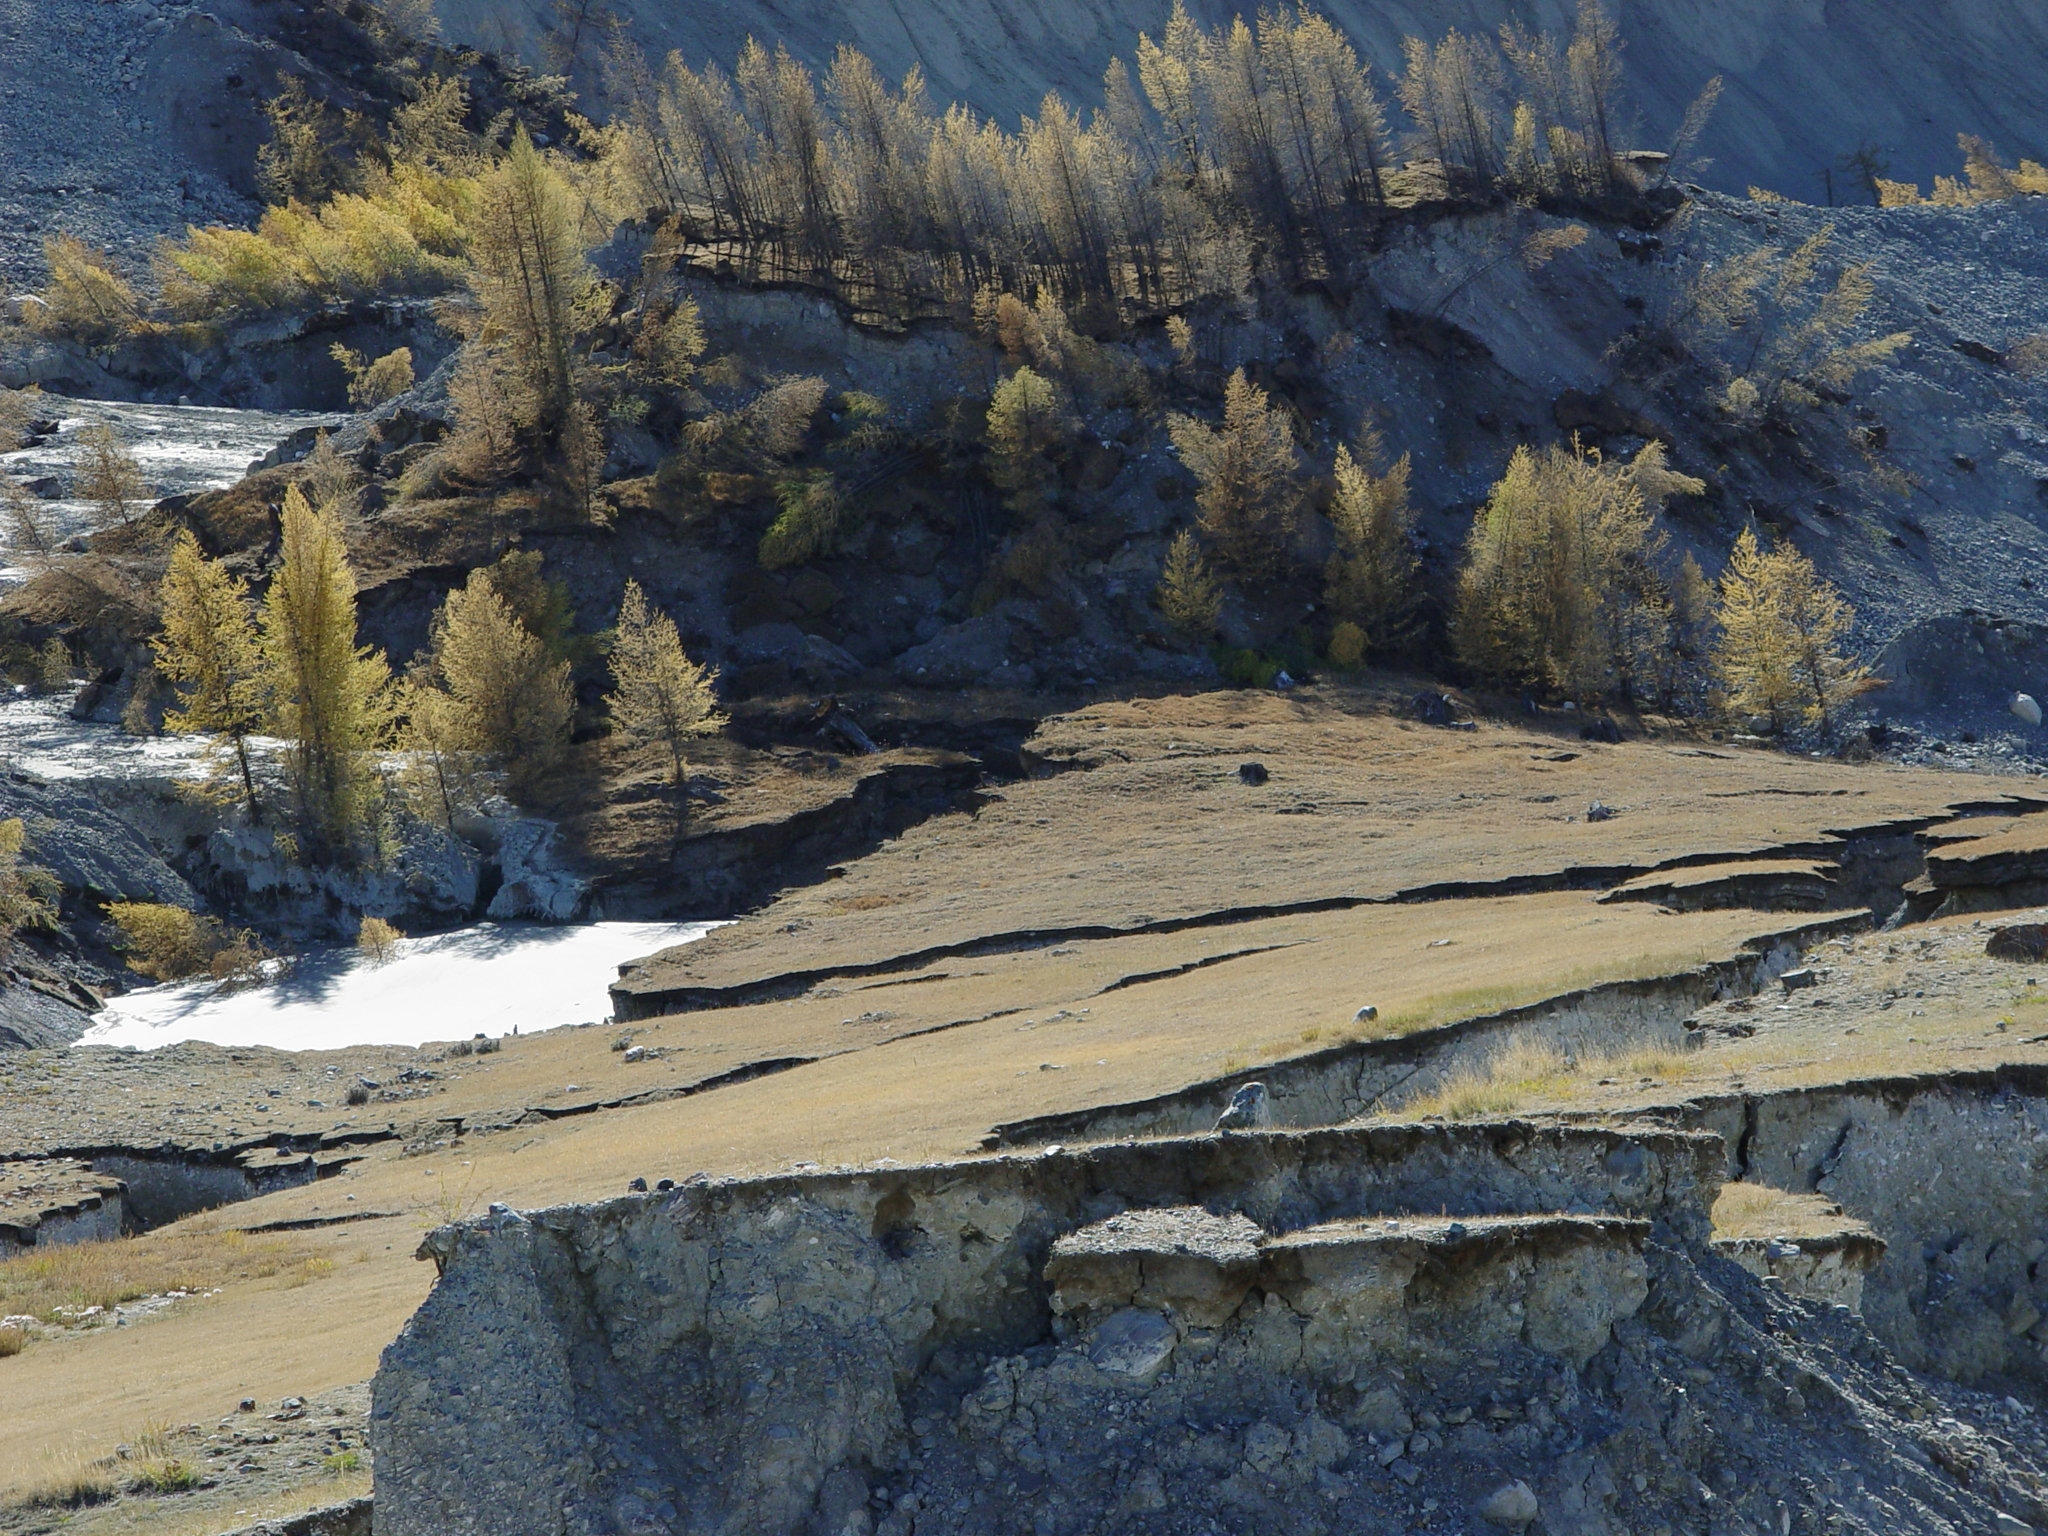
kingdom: Plantae
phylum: Tracheophyta
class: Pinopsida
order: Pinales
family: Pinaceae
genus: Larix
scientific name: Larix sibirica
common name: Siberian larch
